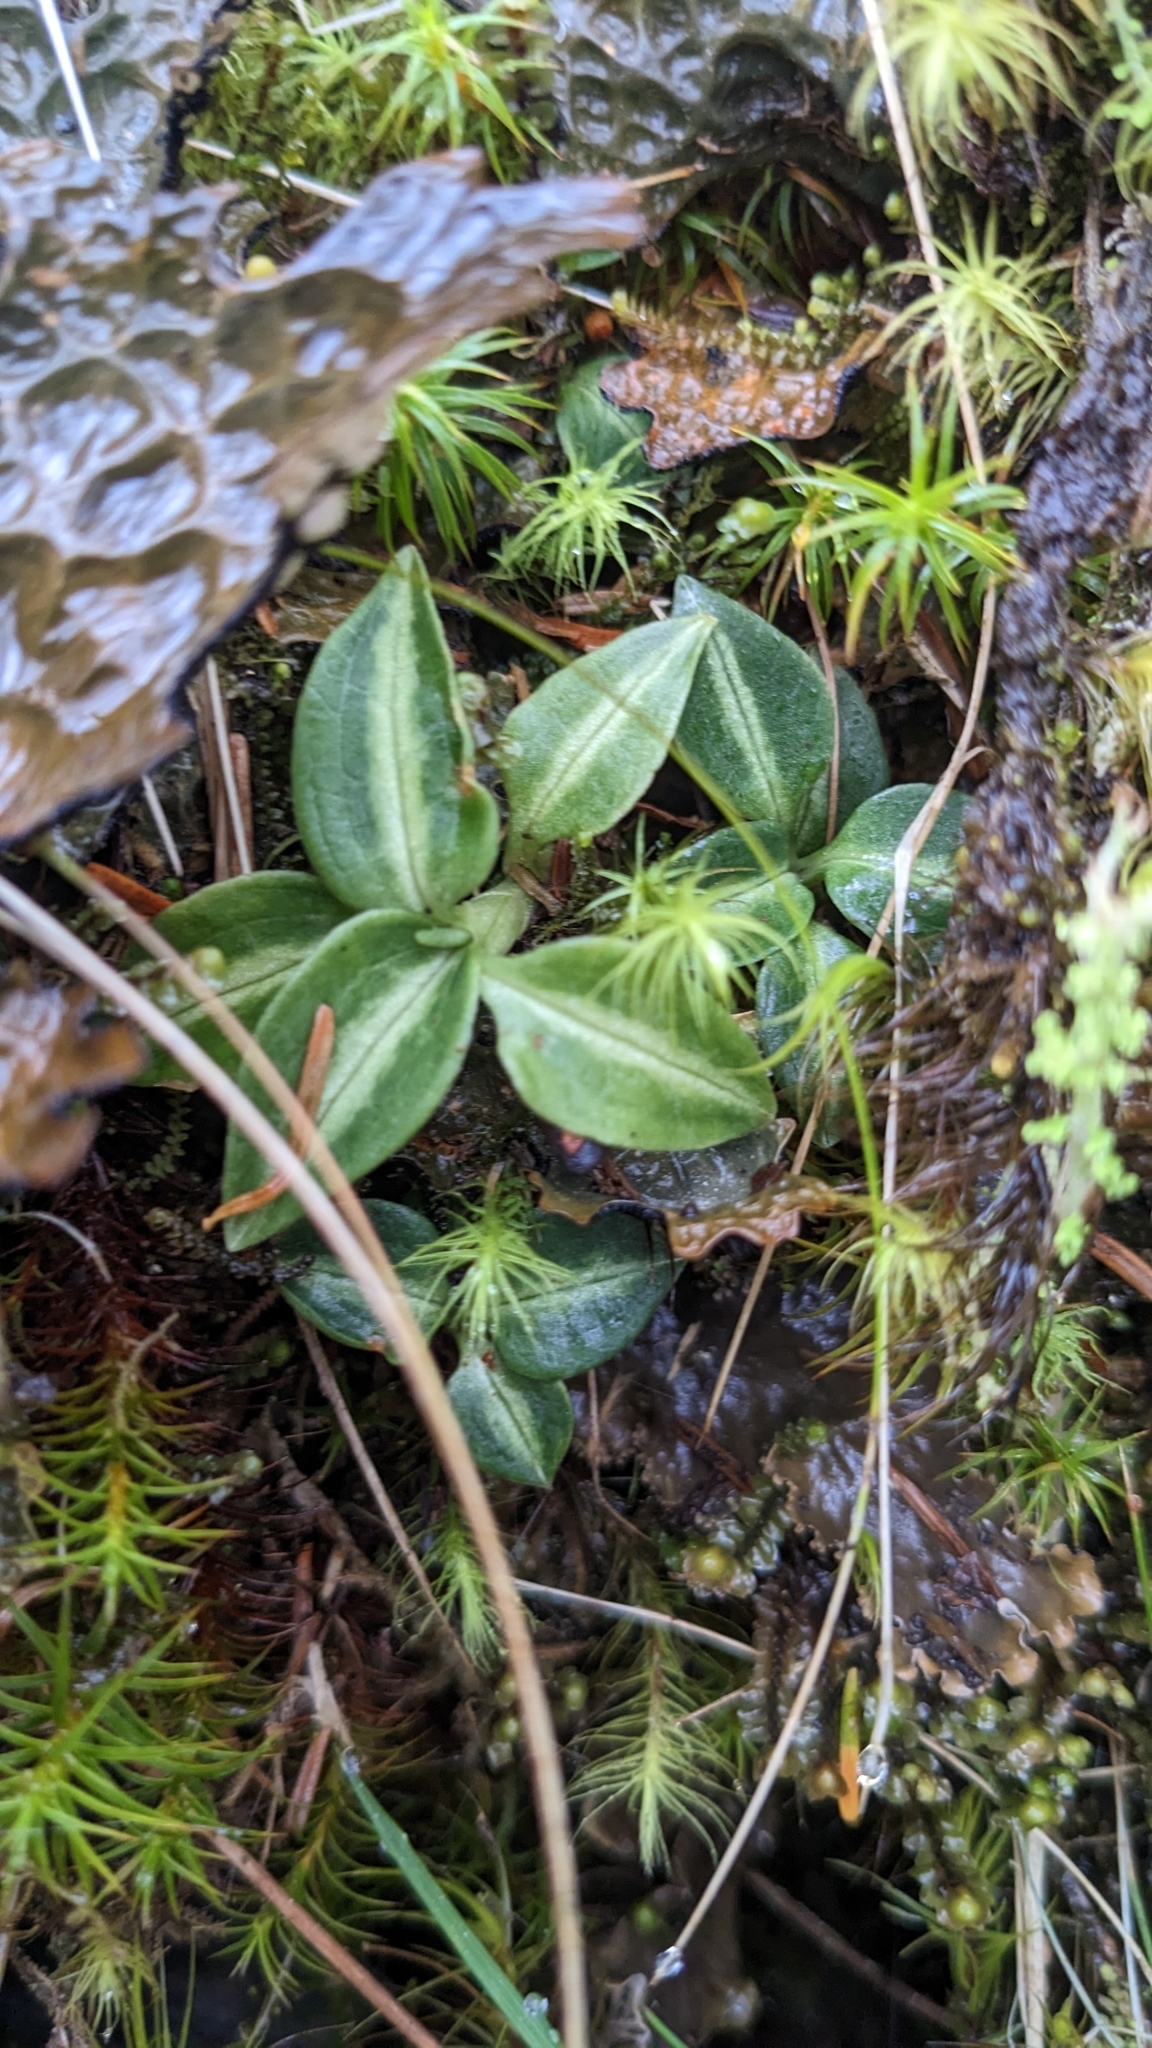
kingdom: Plantae
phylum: Tracheophyta
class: Liliopsida
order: Asparagales
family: Orchidaceae
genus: Goodyera
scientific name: Goodyera nankoensis
